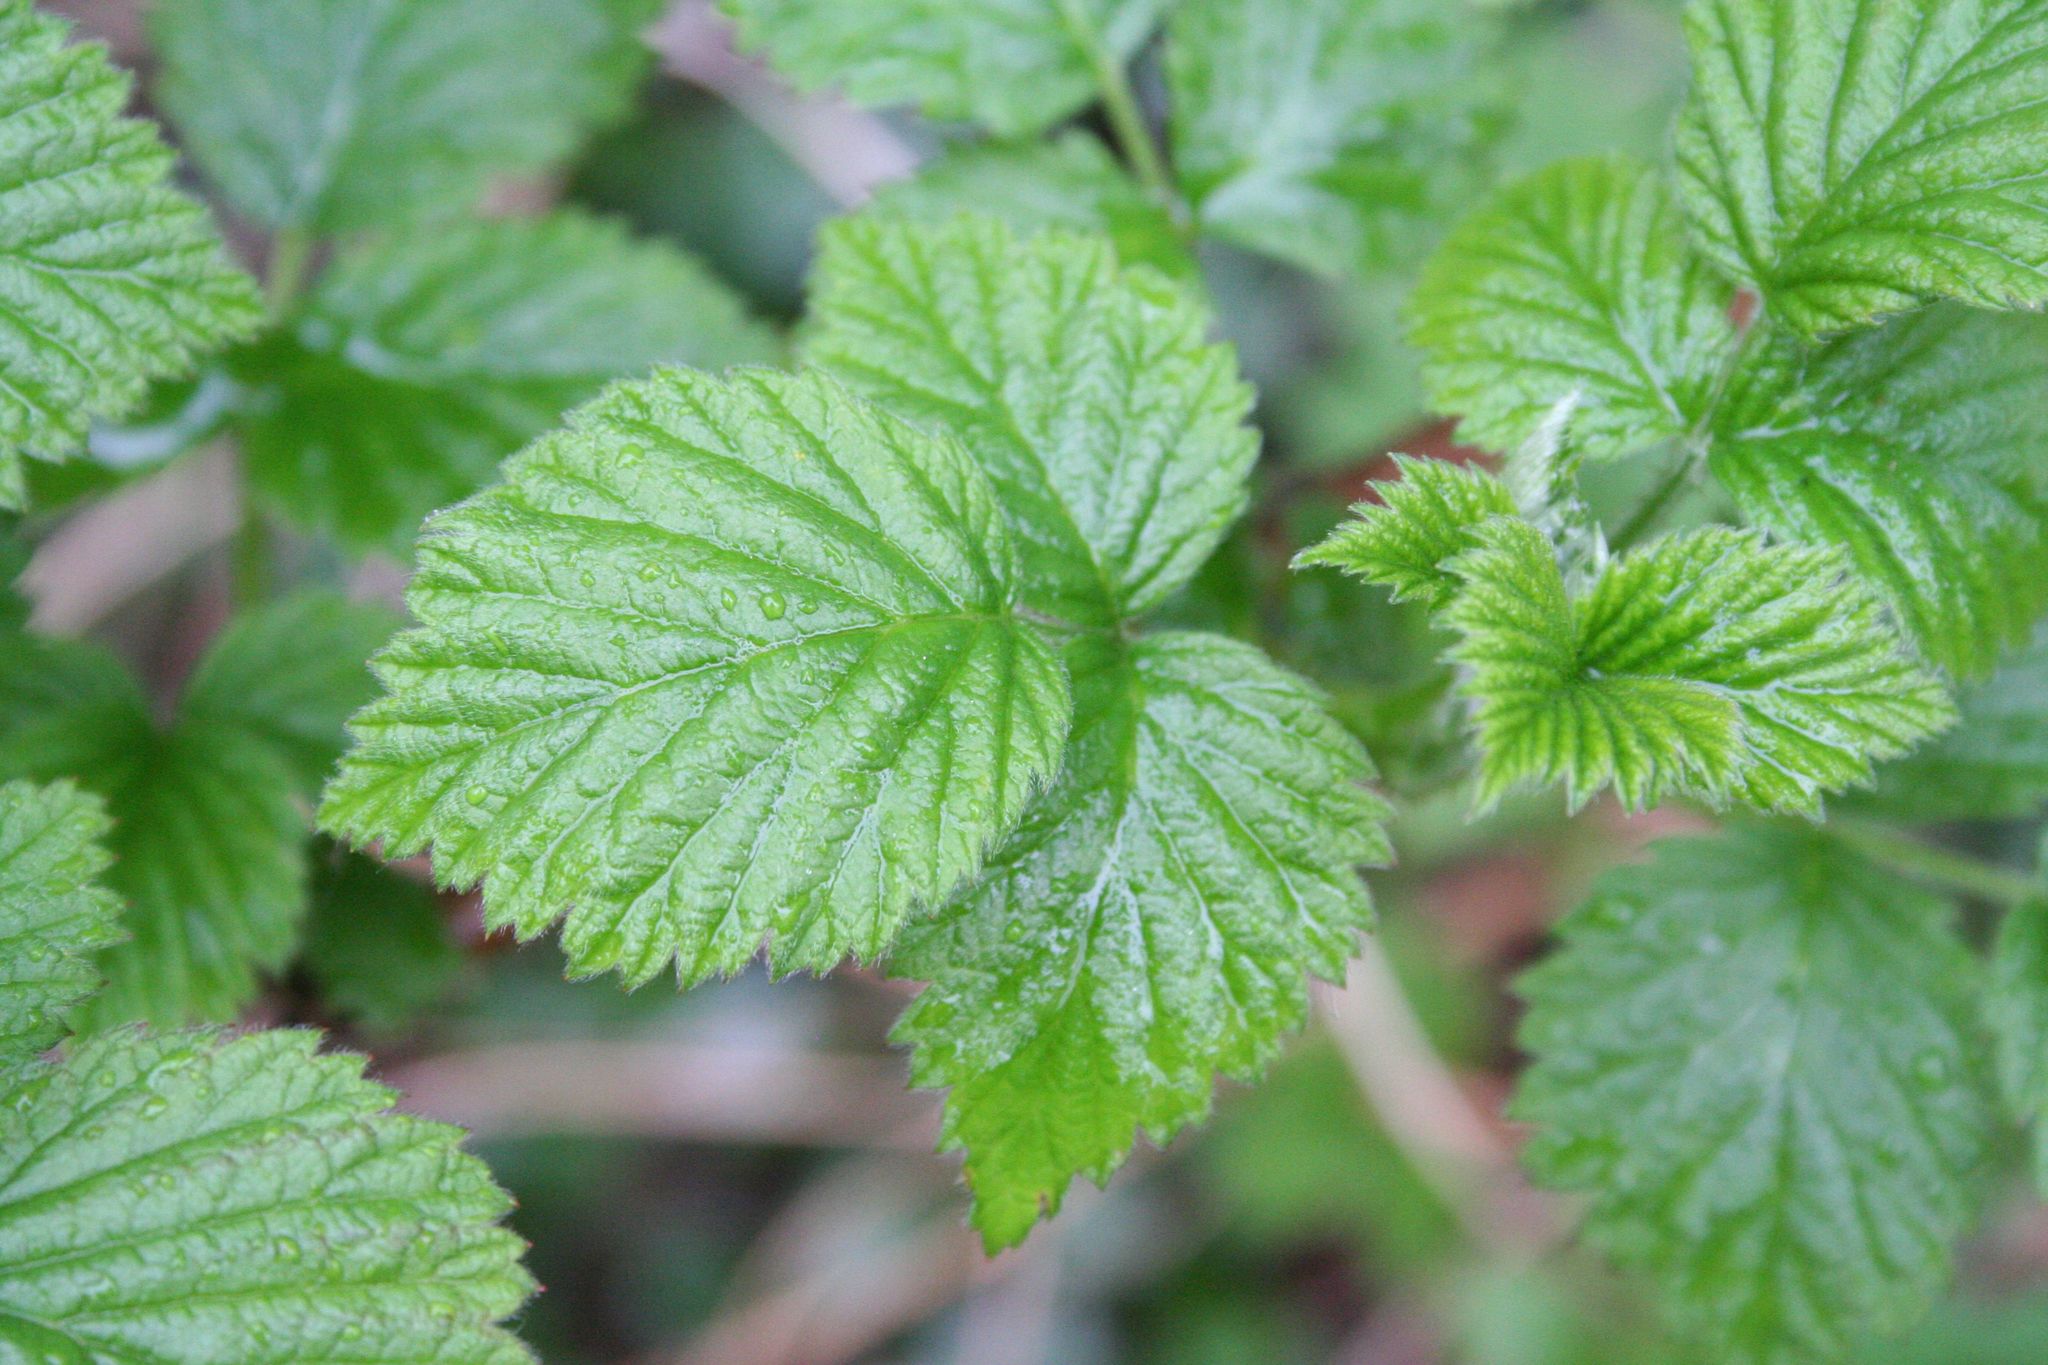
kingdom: Plantae
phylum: Tracheophyta
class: Magnoliopsida
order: Rosales
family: Rosaceae
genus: Rubus
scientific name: Rubus idaeus
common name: Raspberry
